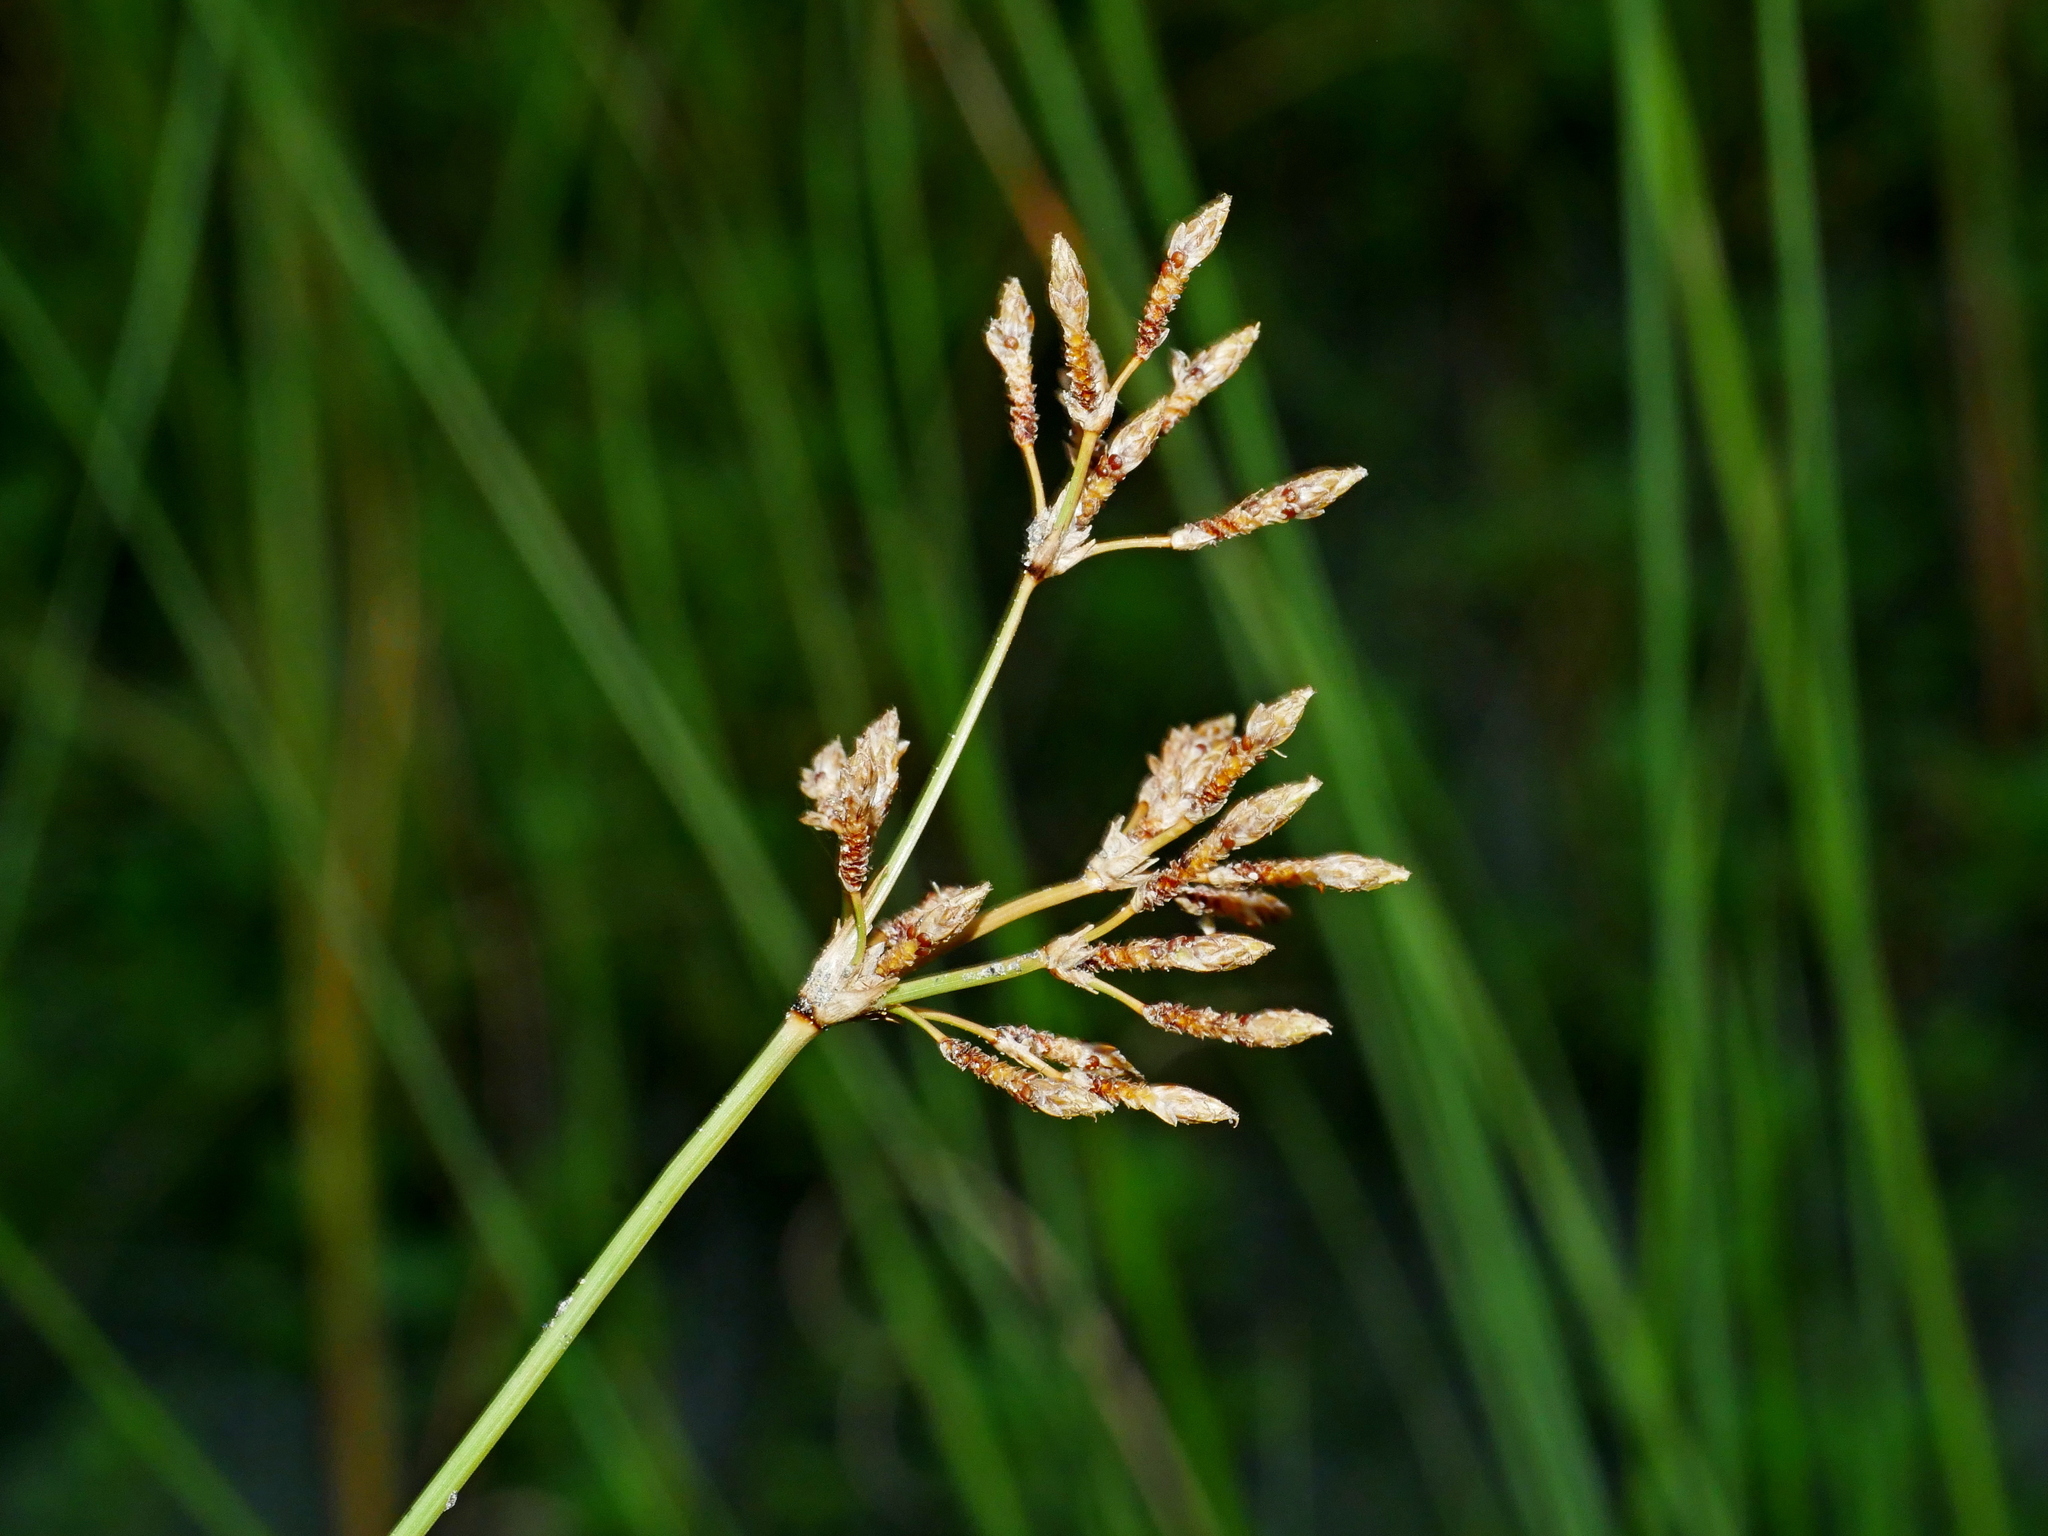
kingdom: Plantae
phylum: Tracheophyta
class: Liliopsida
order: Poales
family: Cyperaceae
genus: Fimbristylis
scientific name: Fimbristylis cymosa
